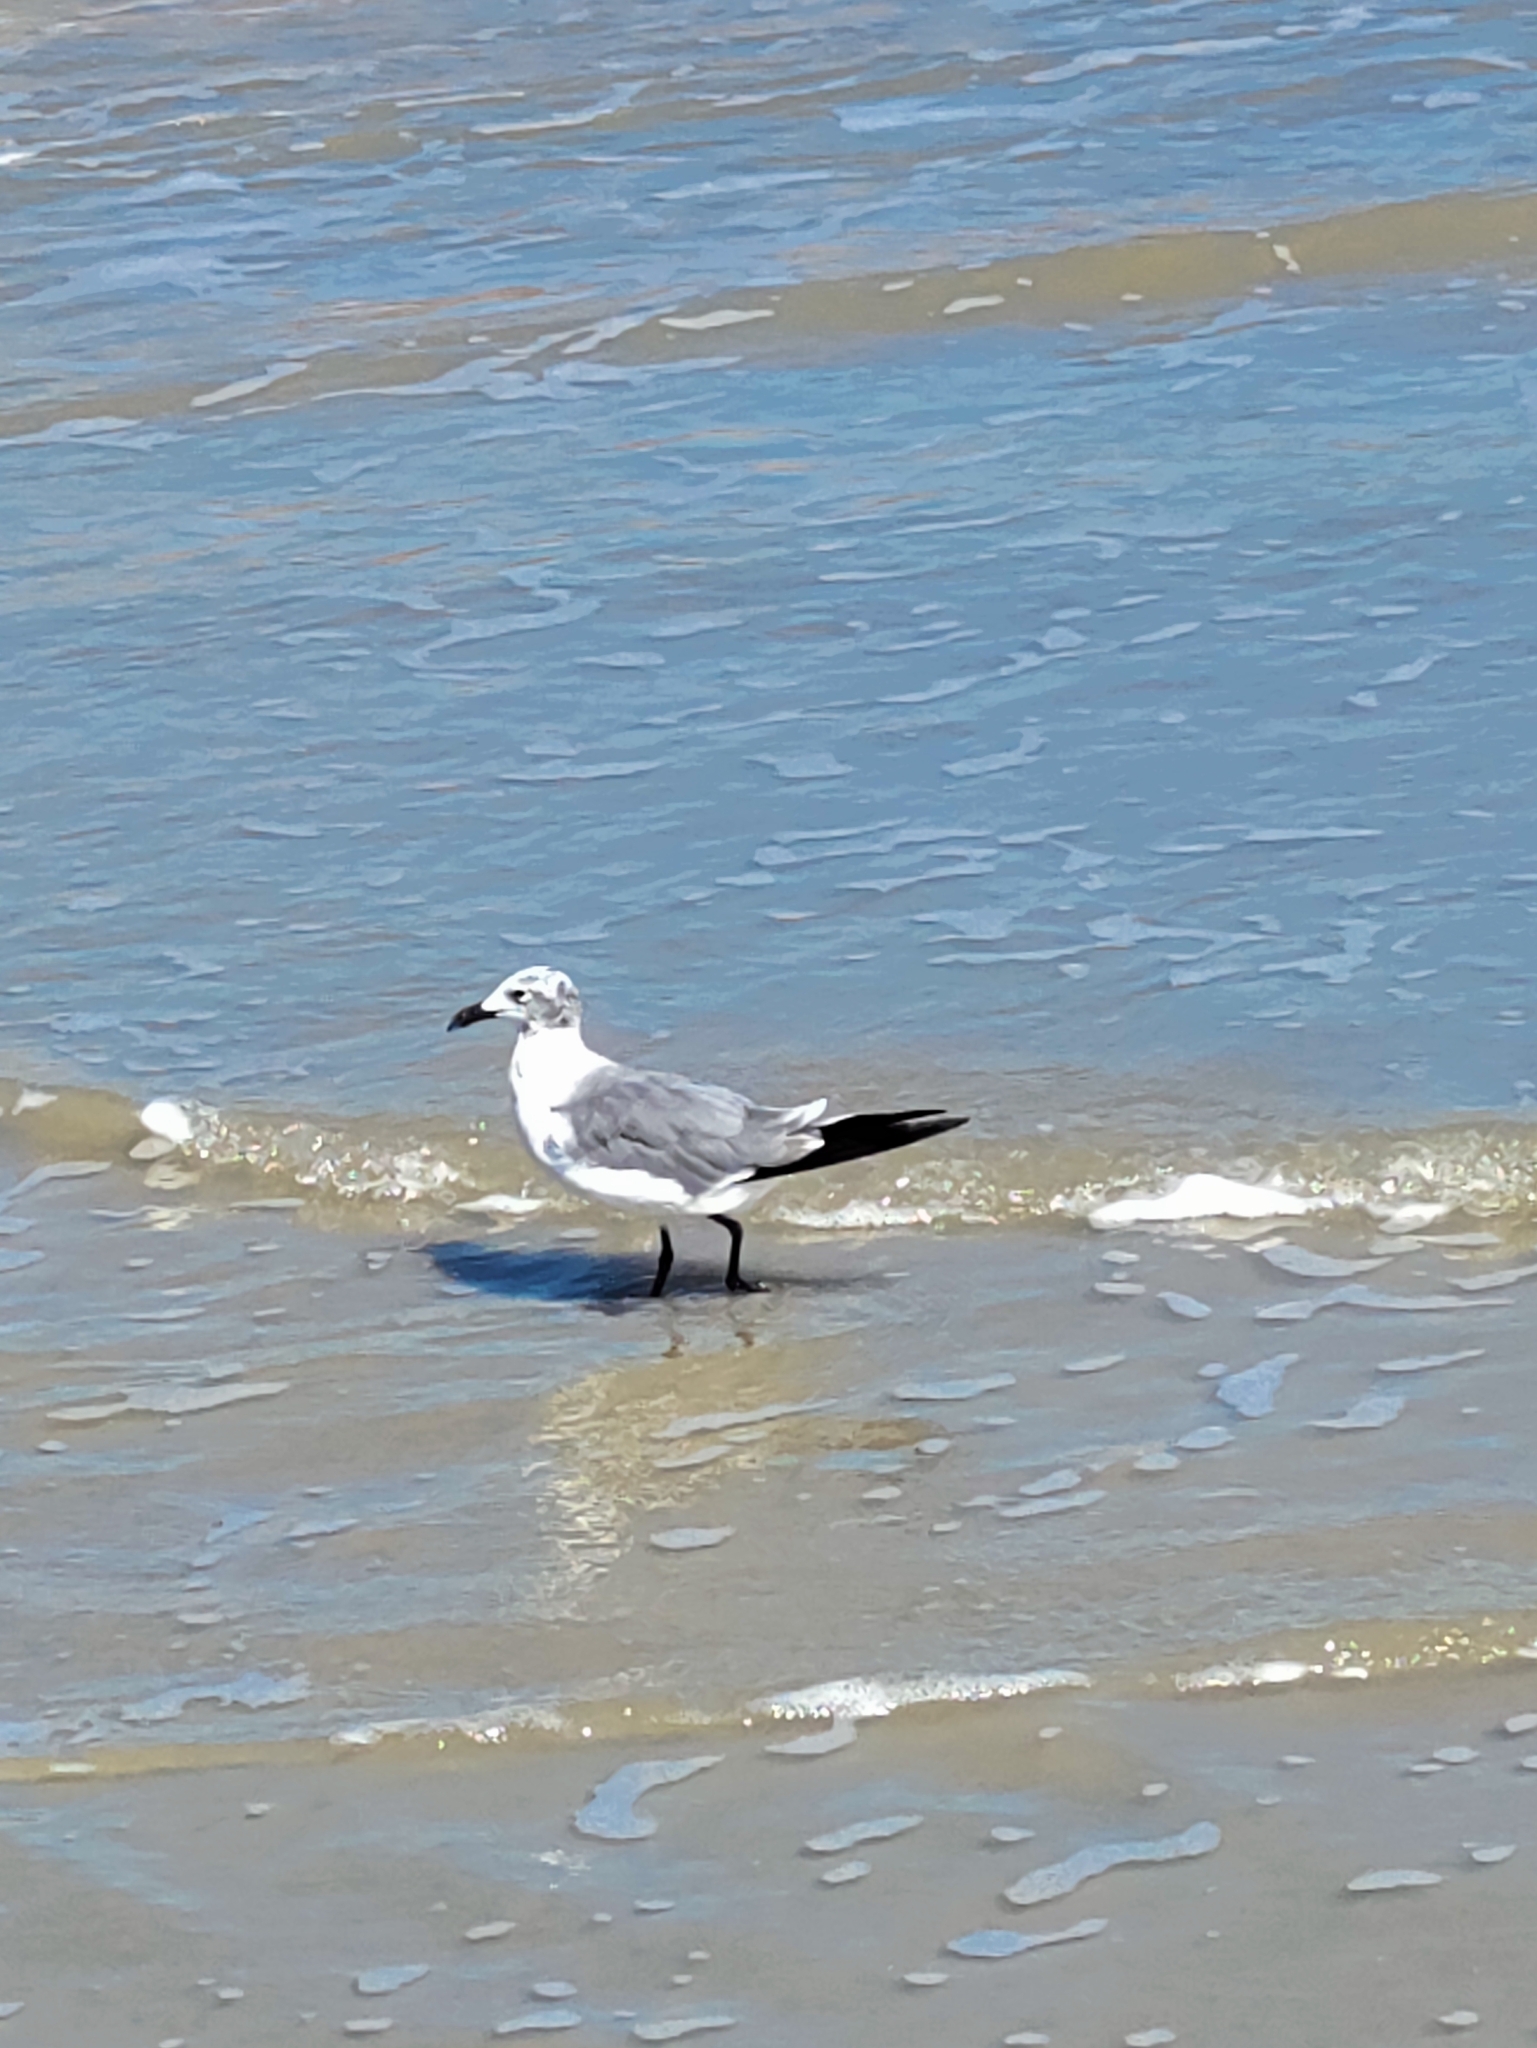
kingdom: Animalia
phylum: Chordata
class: Aves
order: Charadriiformes
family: Laridae
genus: Leucophaeus
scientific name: Leucophaeus atricilla
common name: Laughing gull
